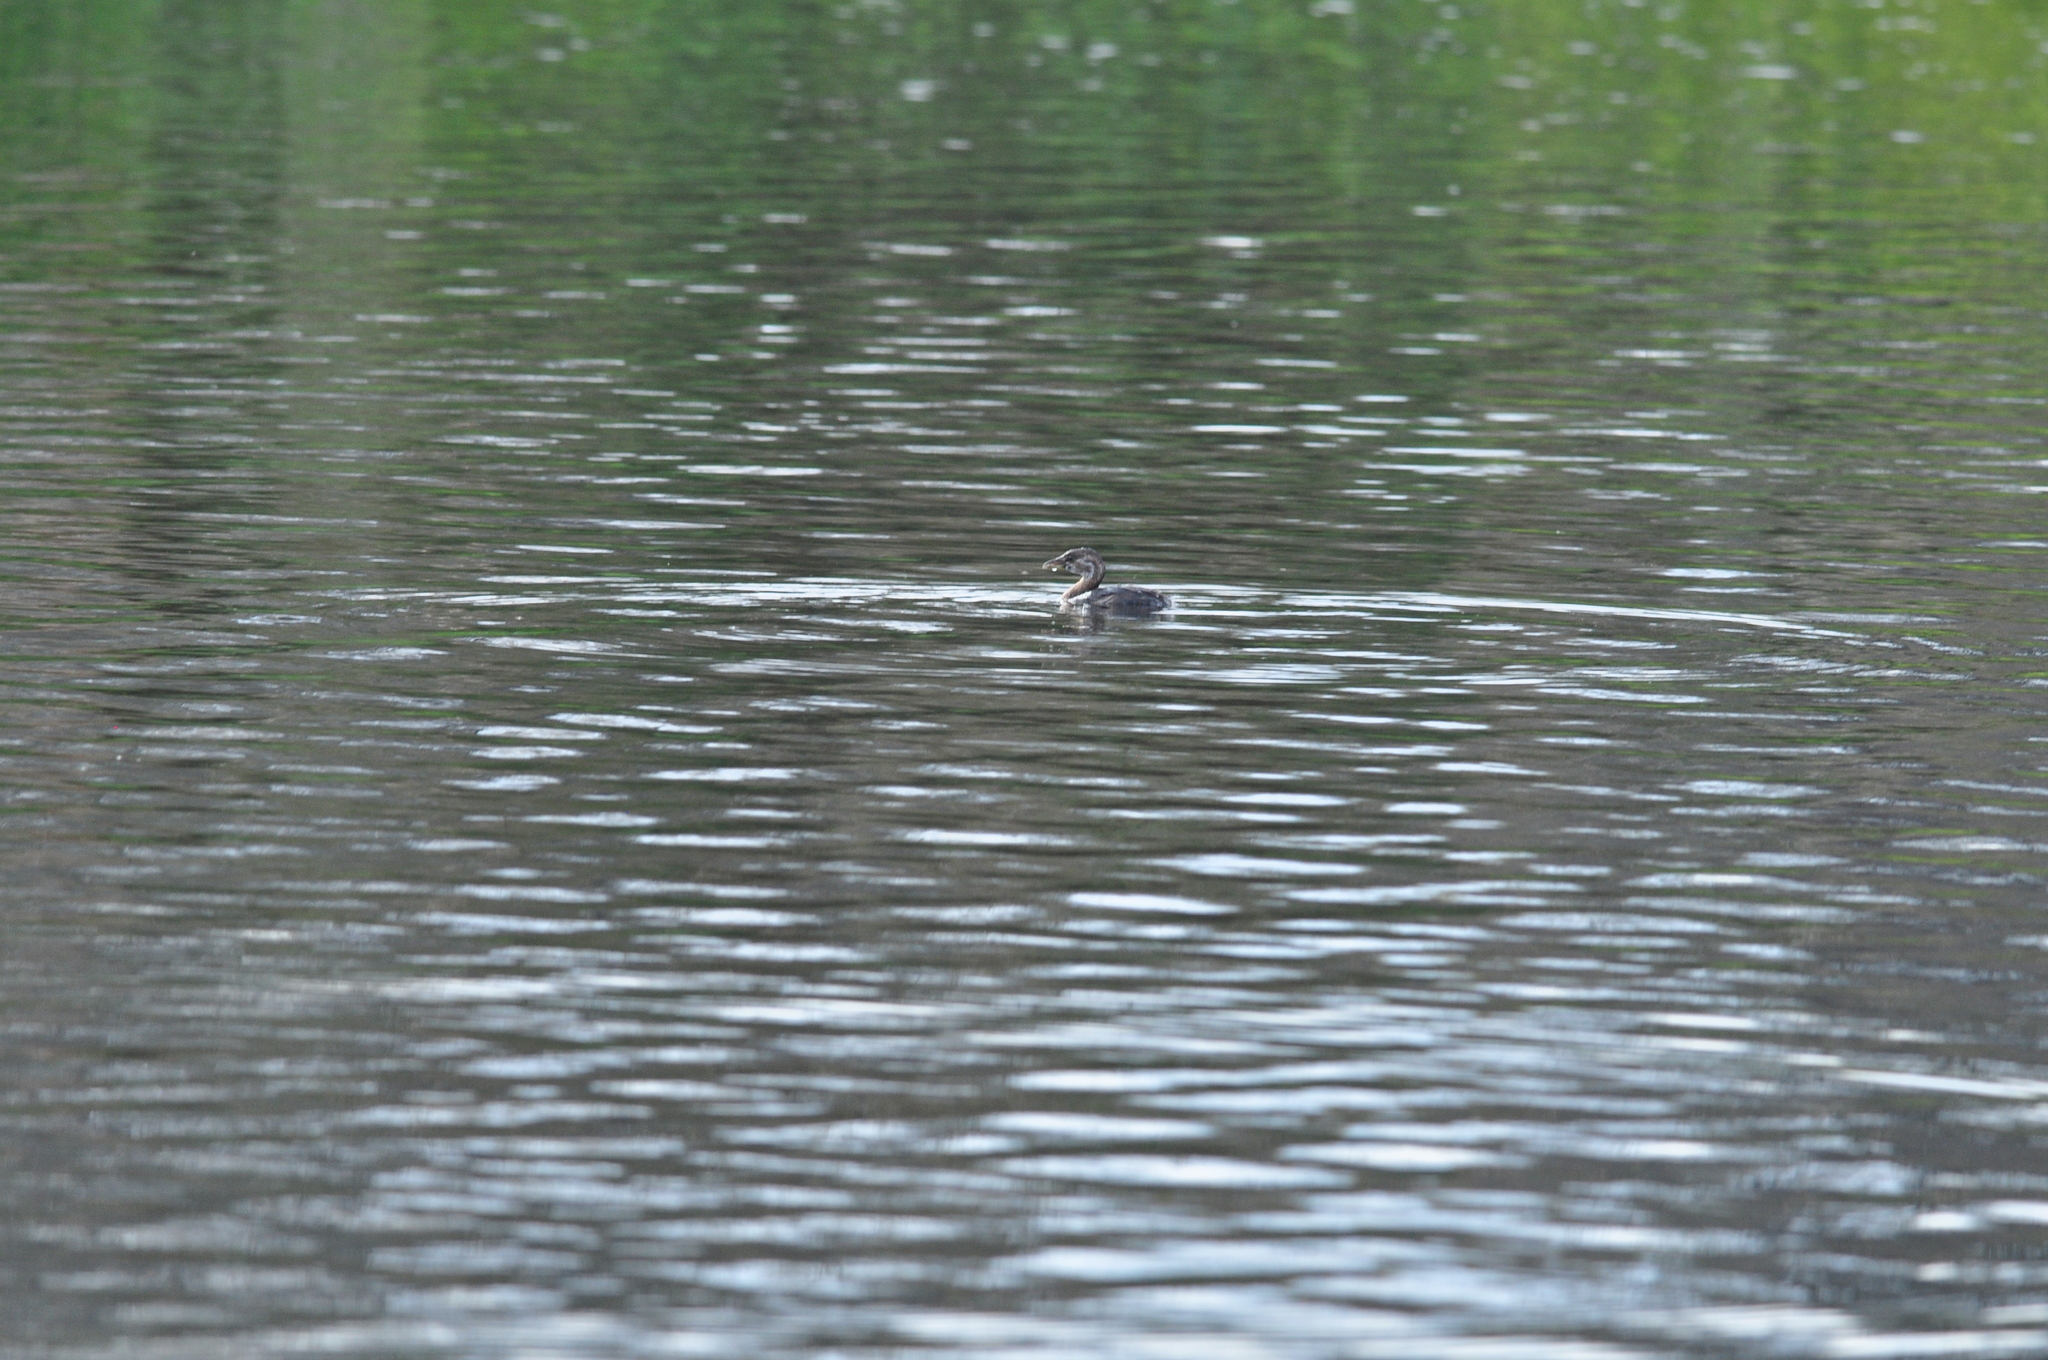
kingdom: Animalia
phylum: Chordata
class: Aves
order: Podicipediformes
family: Podicipedidae
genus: Podilymbus
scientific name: Podilymbus podiceps
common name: Pied-billed grebe
